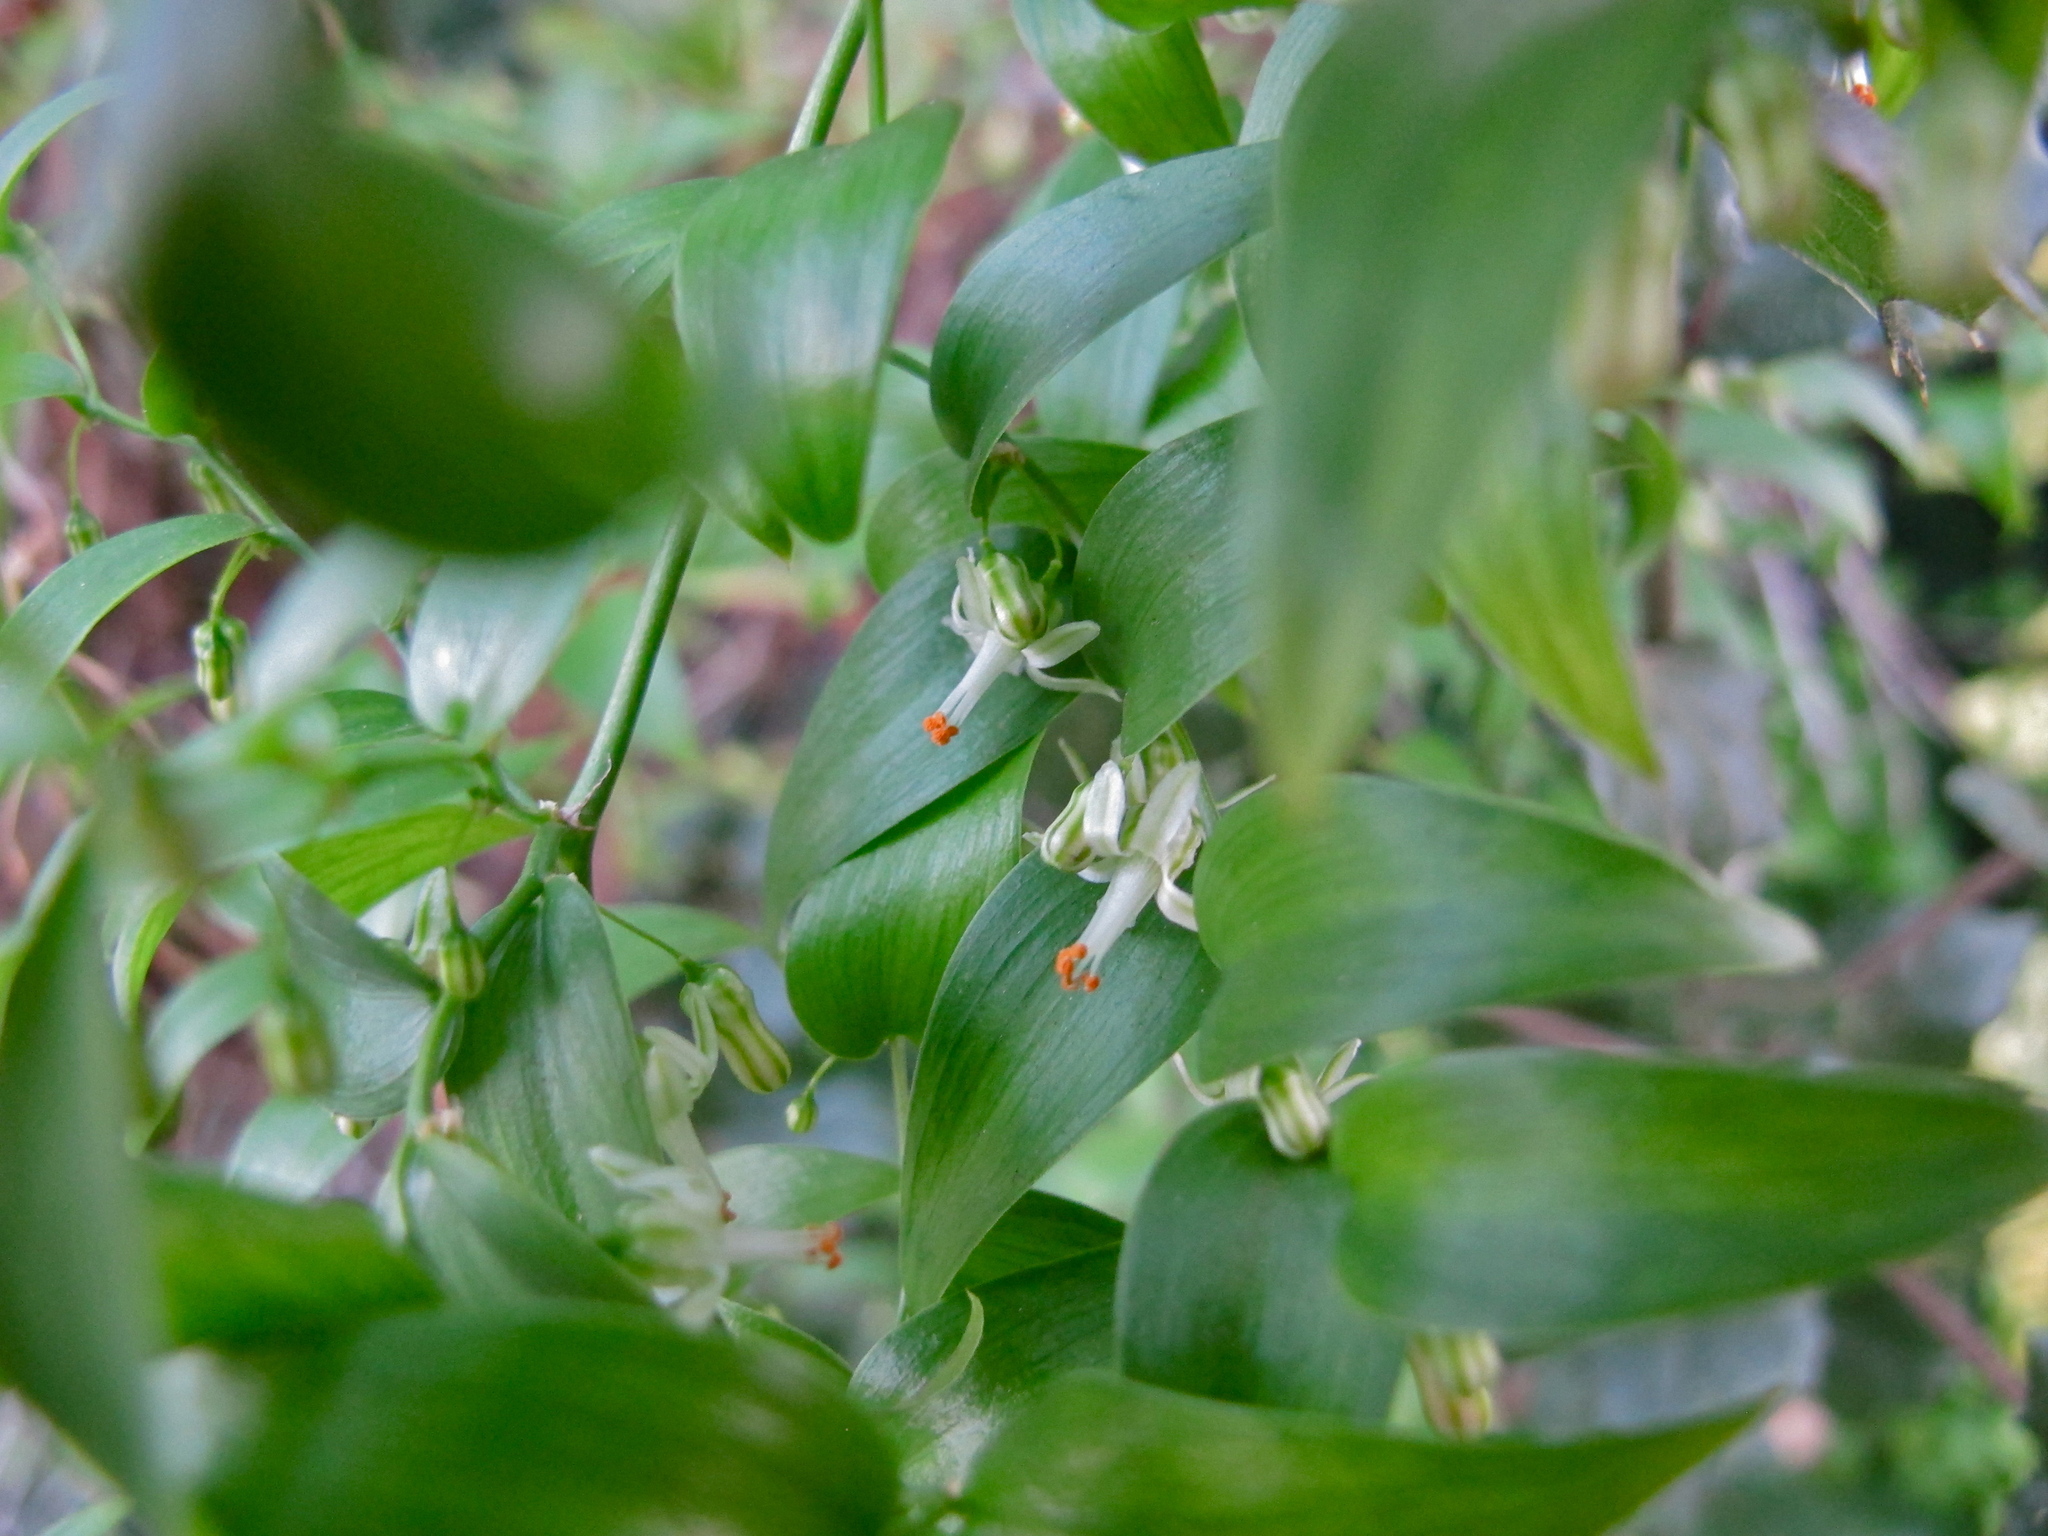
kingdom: Plantae
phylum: Tracheophyta
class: Liliopsida
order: Asparagales
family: Asparagaceae
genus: Asparagus
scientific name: Asparagus asparagoides
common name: African asparagus fern
